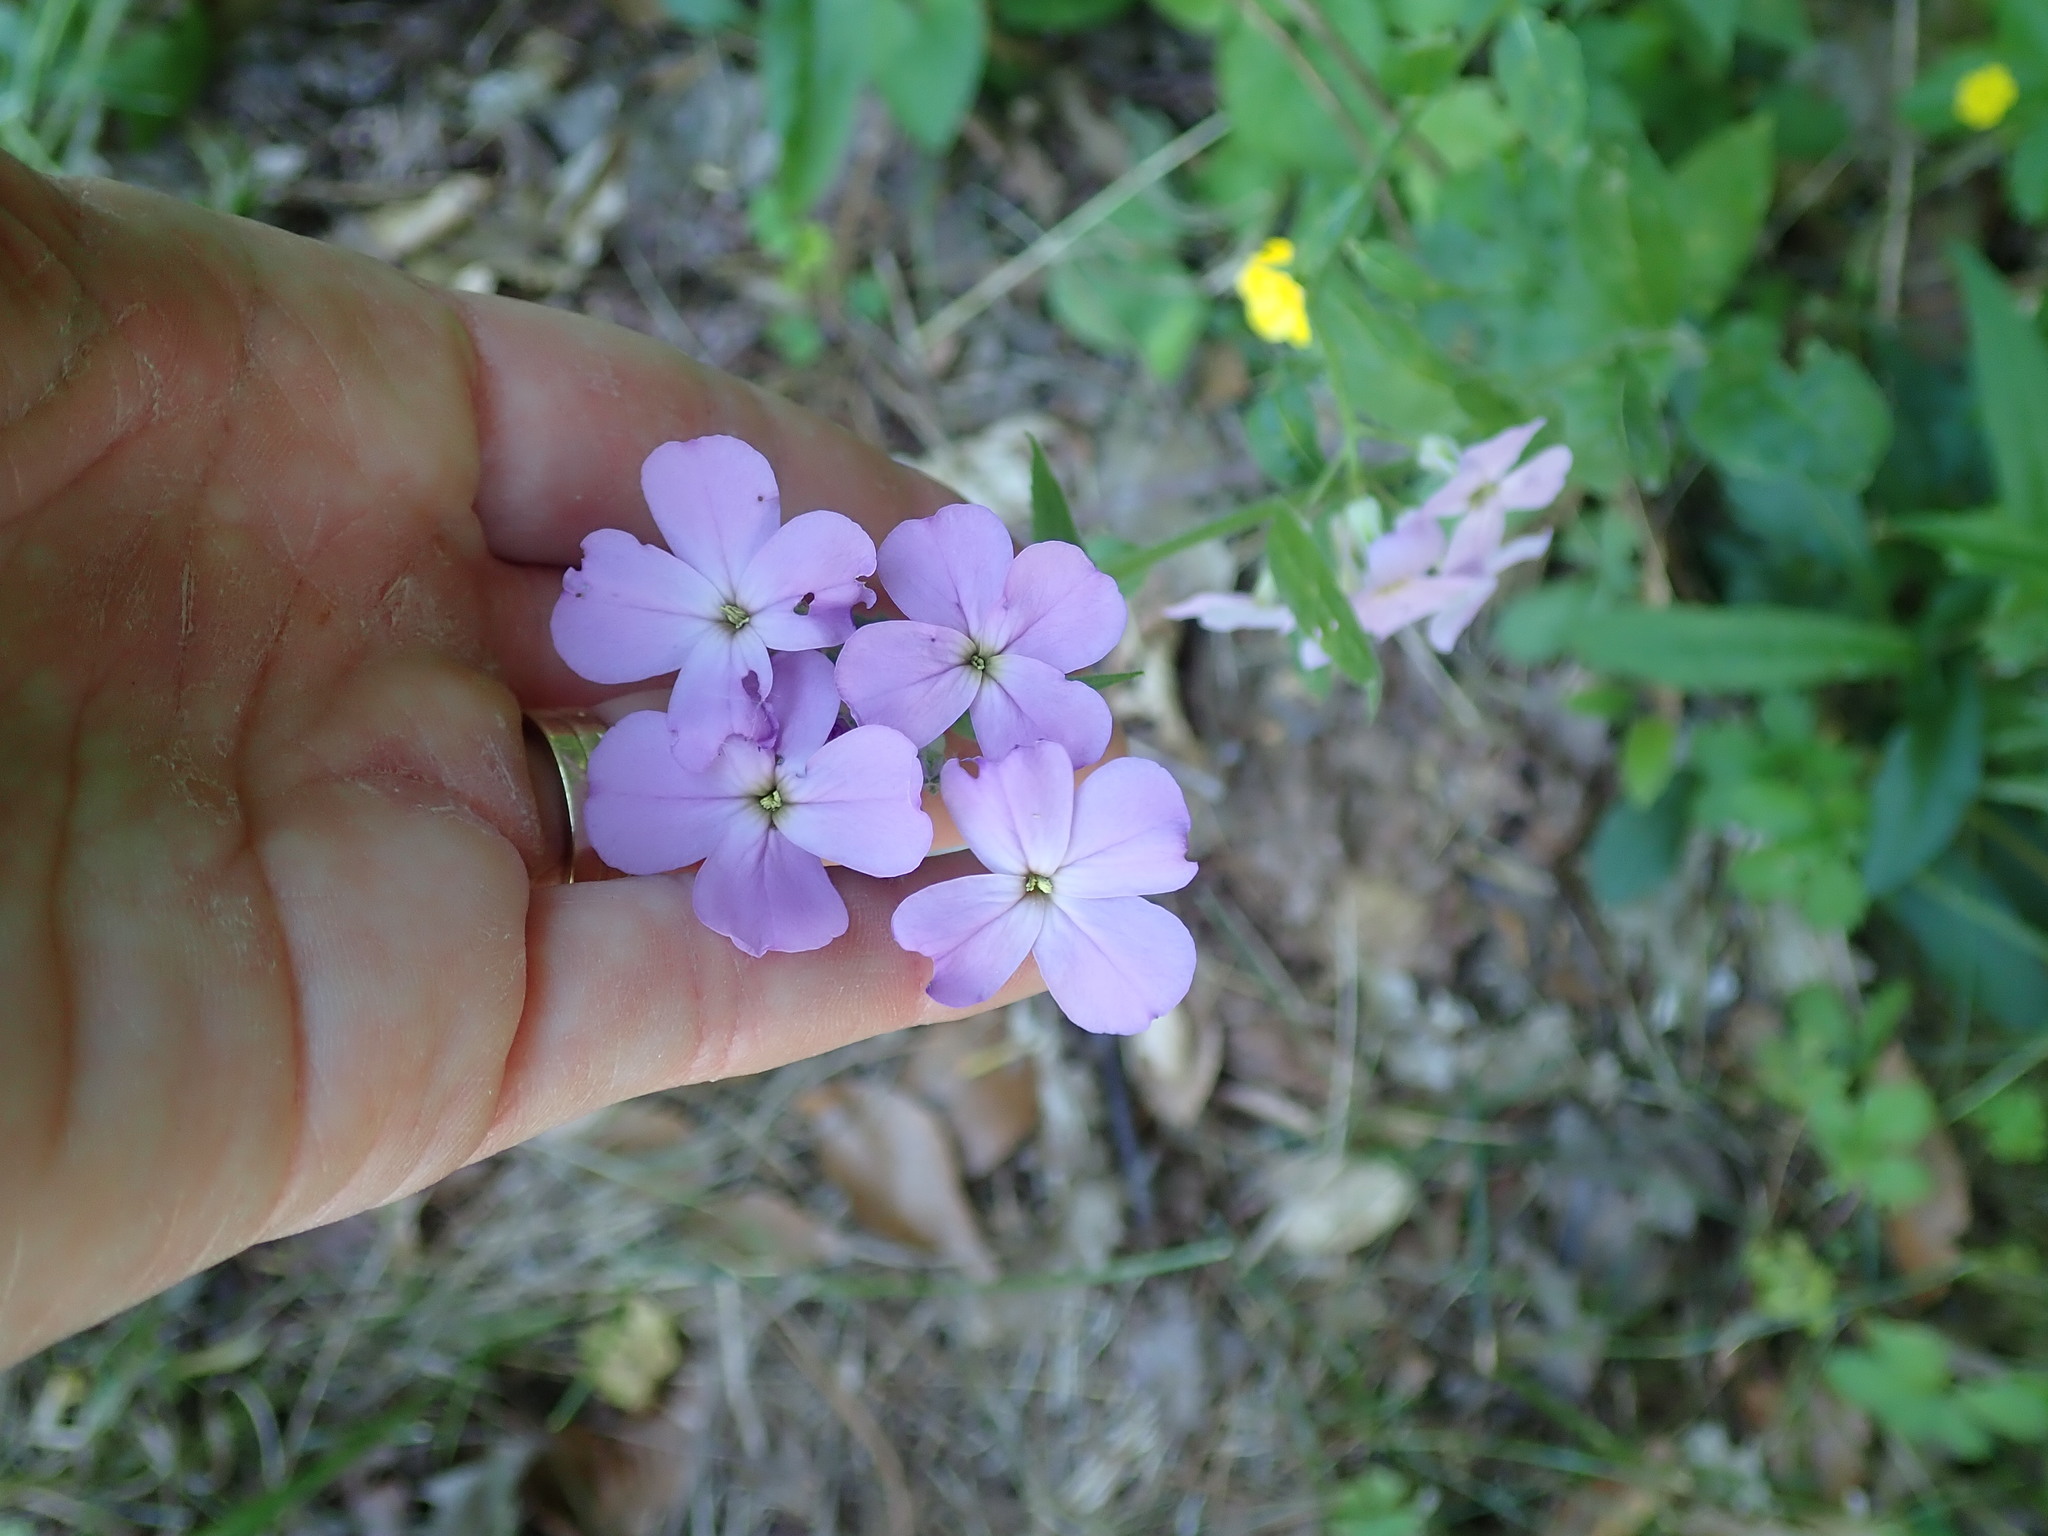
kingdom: Plantae
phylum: Tracheophyta
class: Magnoliopsida
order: Brassicales
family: Brassicaceae
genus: Hesperis
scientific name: Hesperis matronalis
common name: Dame's-violet
